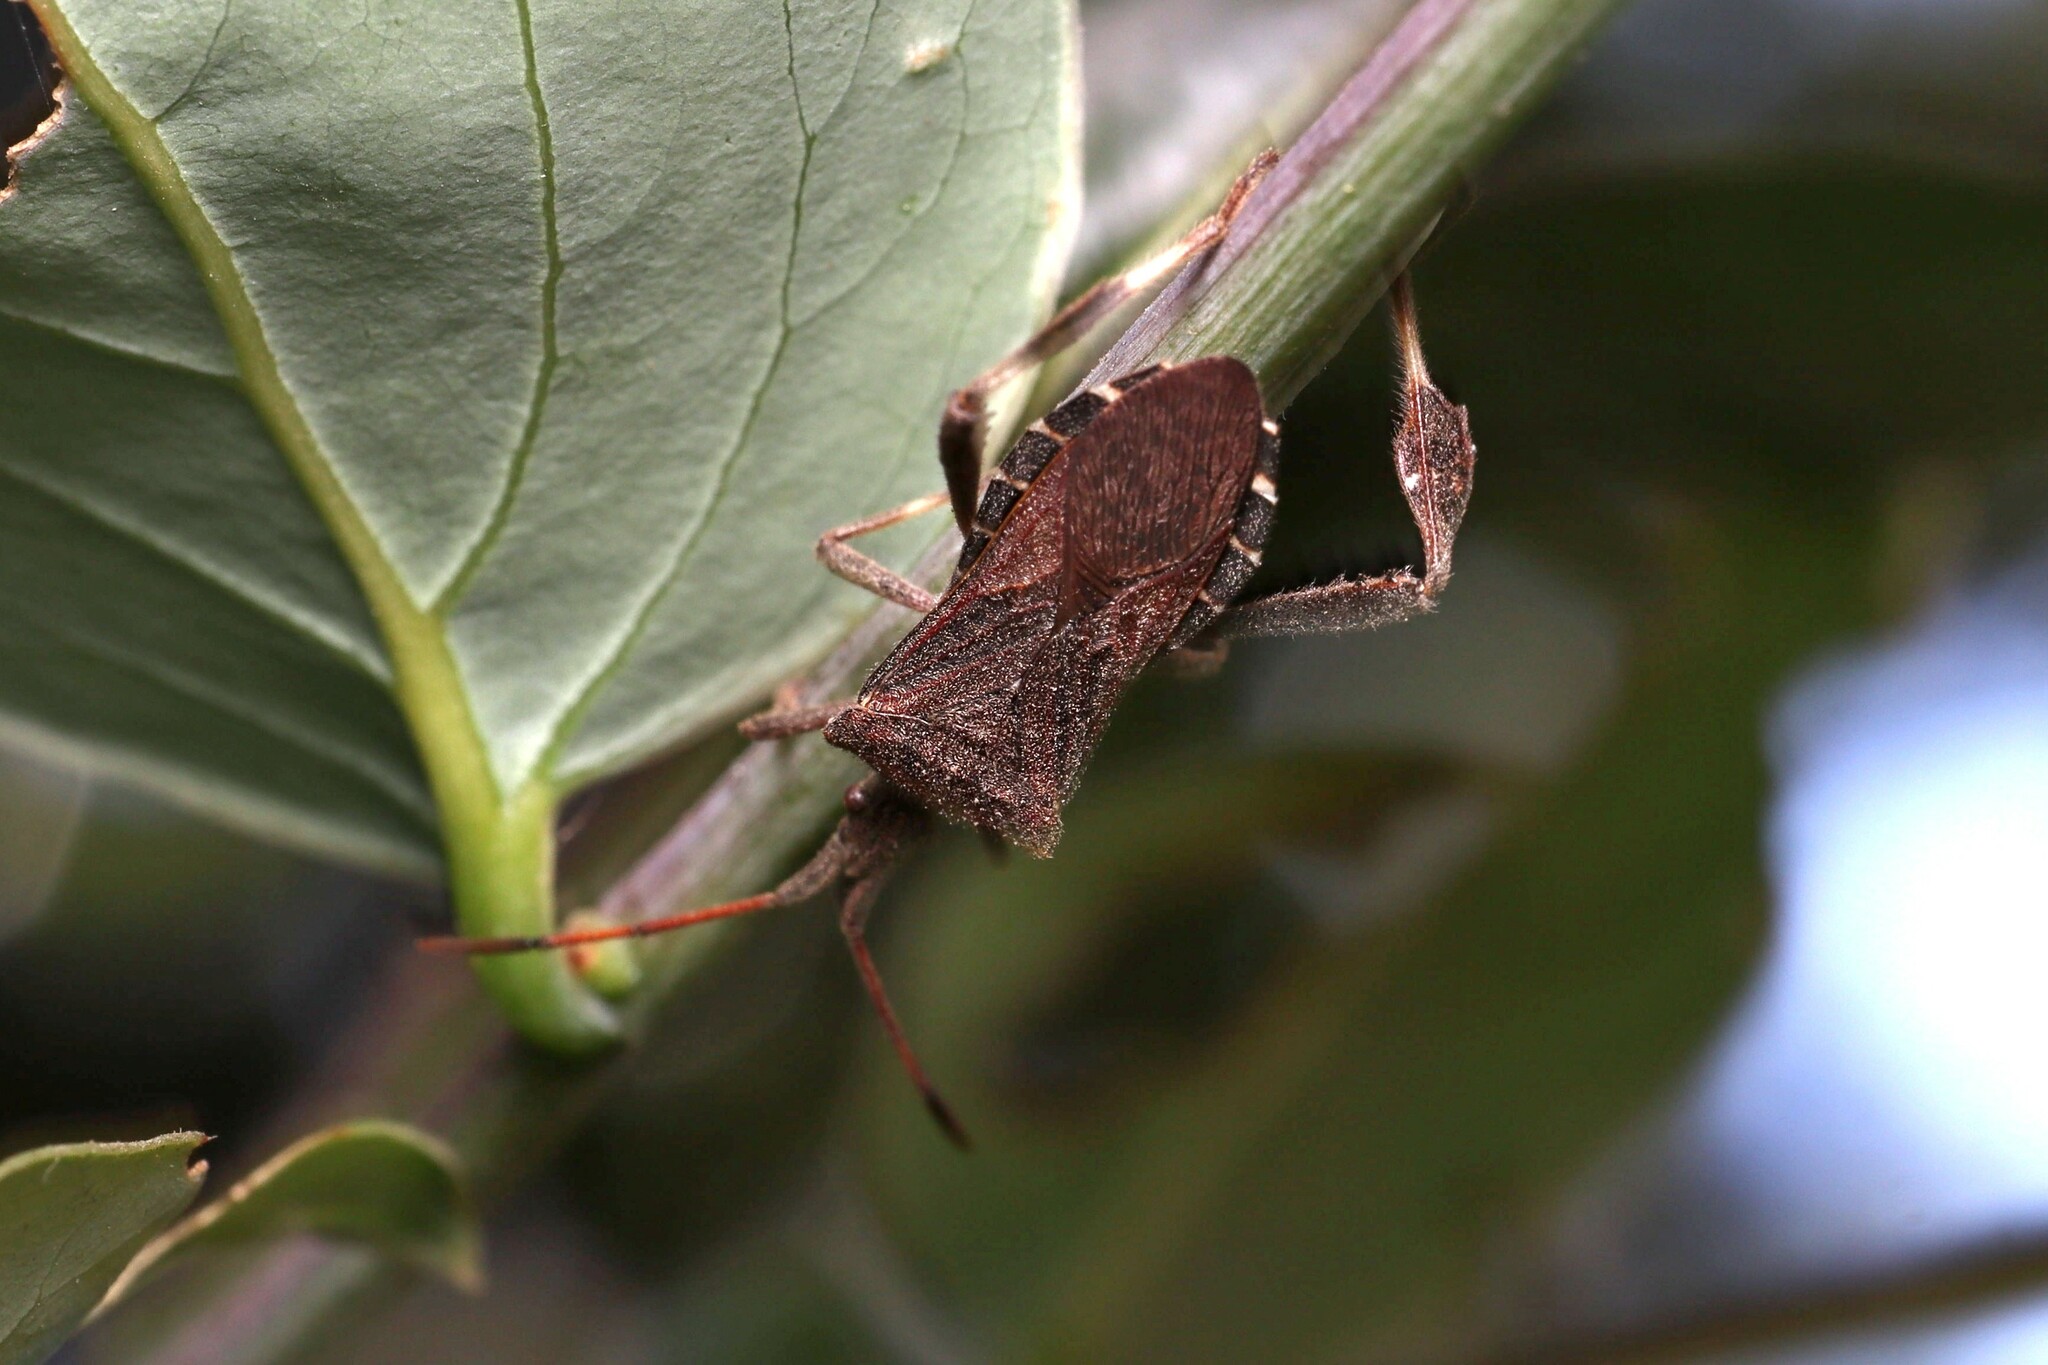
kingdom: Animalia
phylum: Arthropoda
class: Insecta
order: Hemiptera
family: Coreidae
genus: Leptoglossus
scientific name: Leptoglossus chilensis
